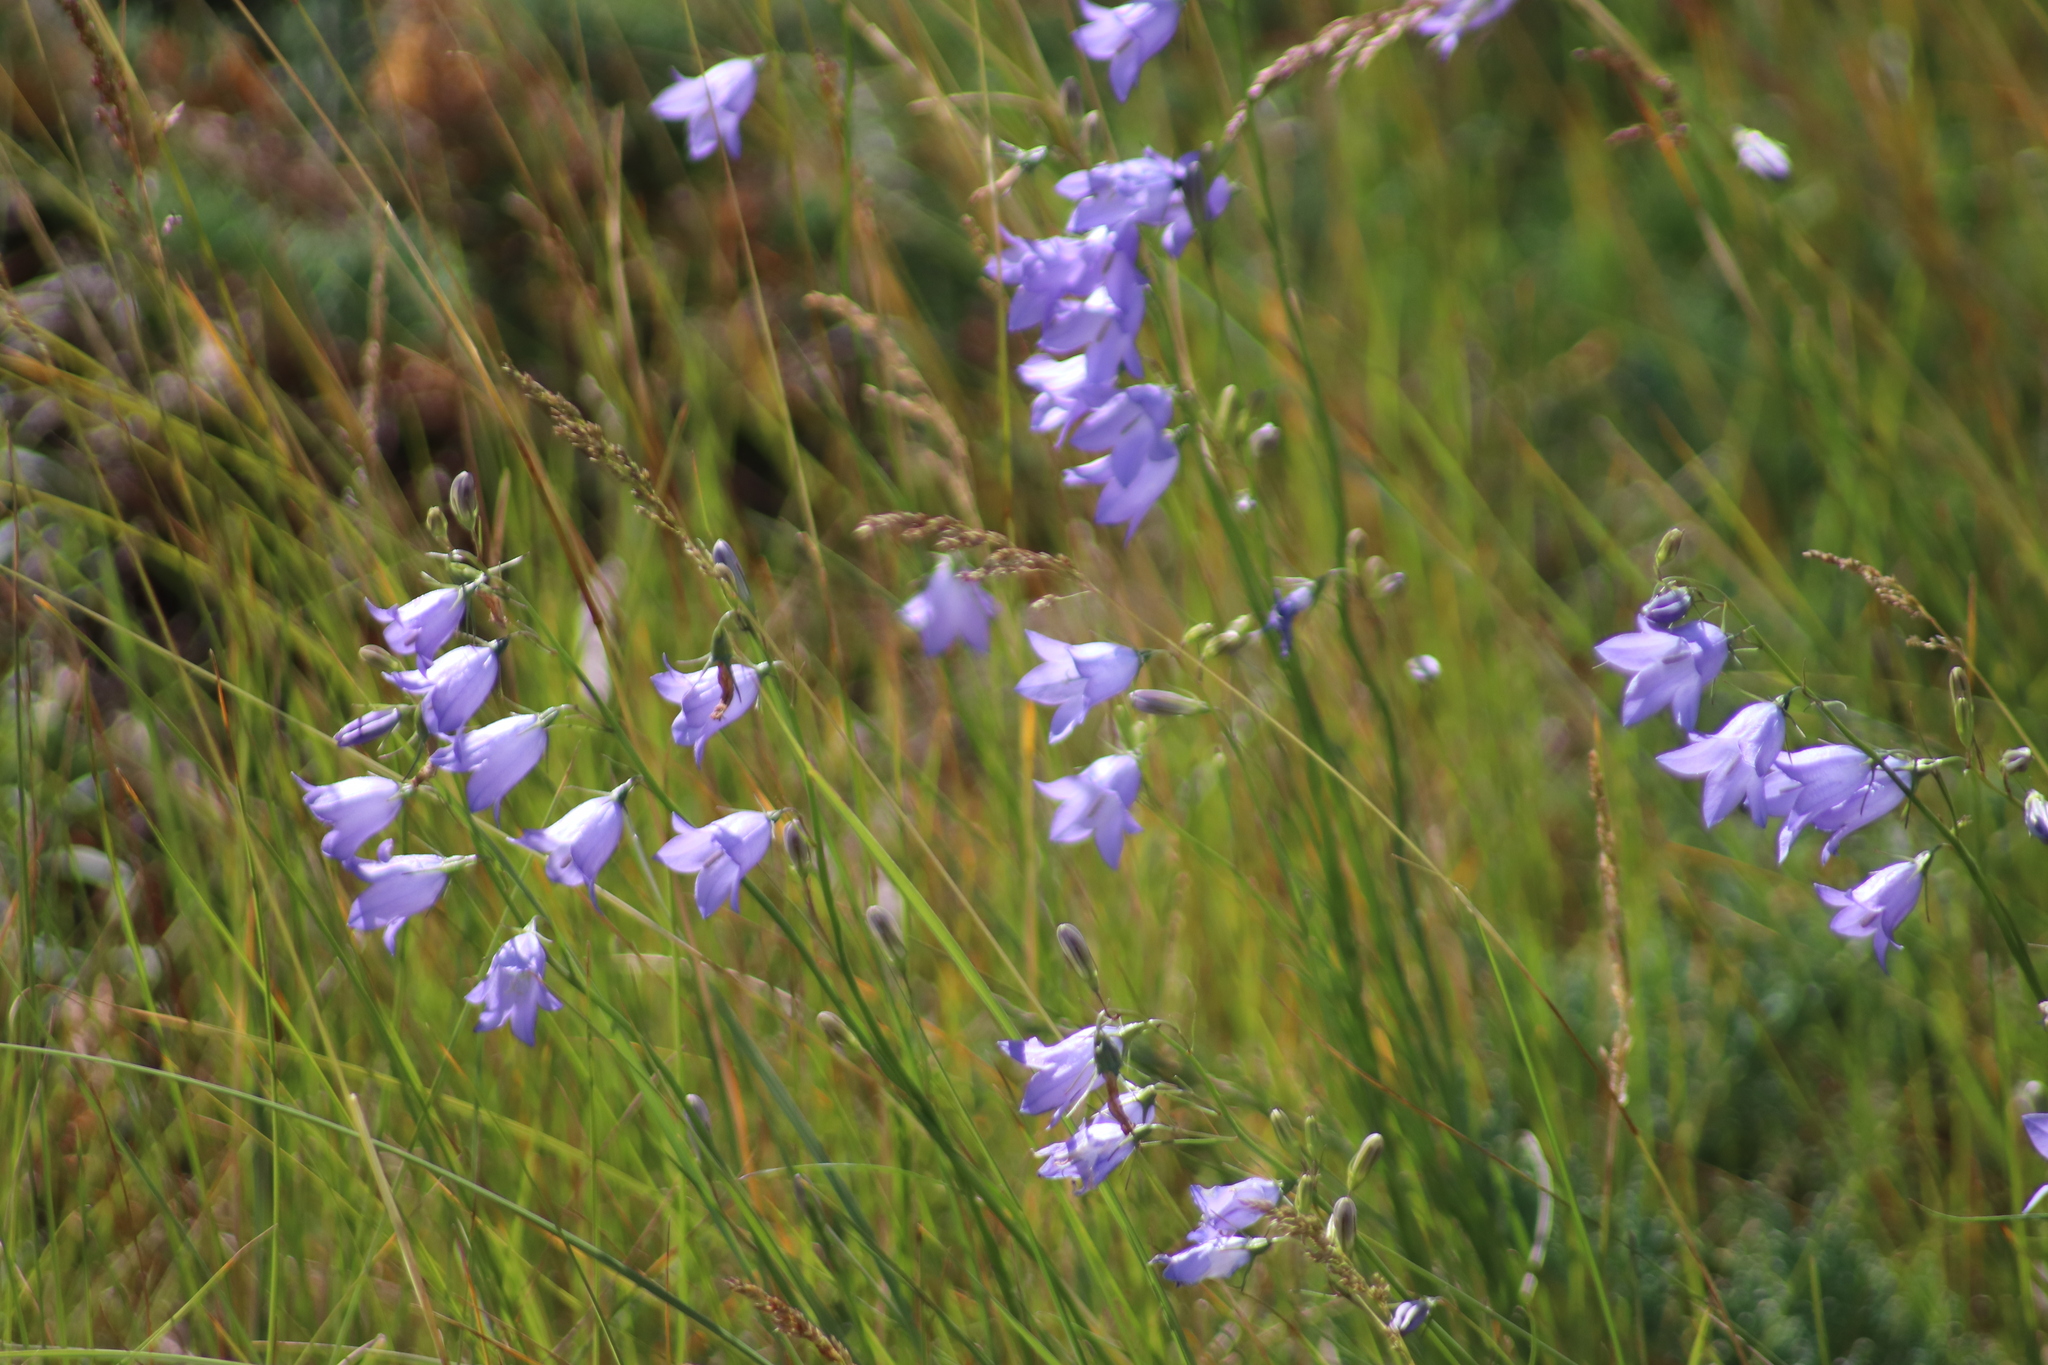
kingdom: Plantae
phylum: Tracheophyta
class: Magnoliopsida
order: Asterales
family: Campanulaceae
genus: Campanula
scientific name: Campanula alaskana
